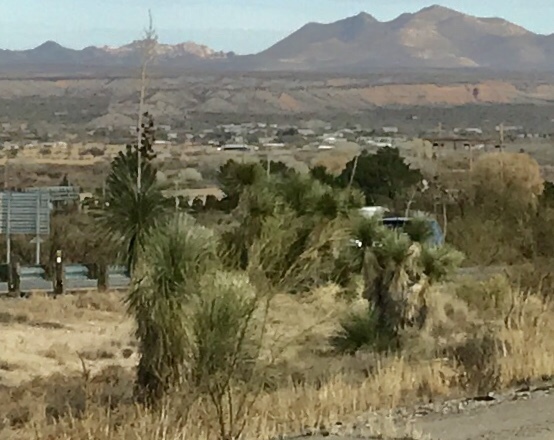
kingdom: Plantae
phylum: Tracheophyta
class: Liliopsida
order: Asparagales
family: Asparagaceae
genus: Yucca
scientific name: Yucca elata
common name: Palmella
